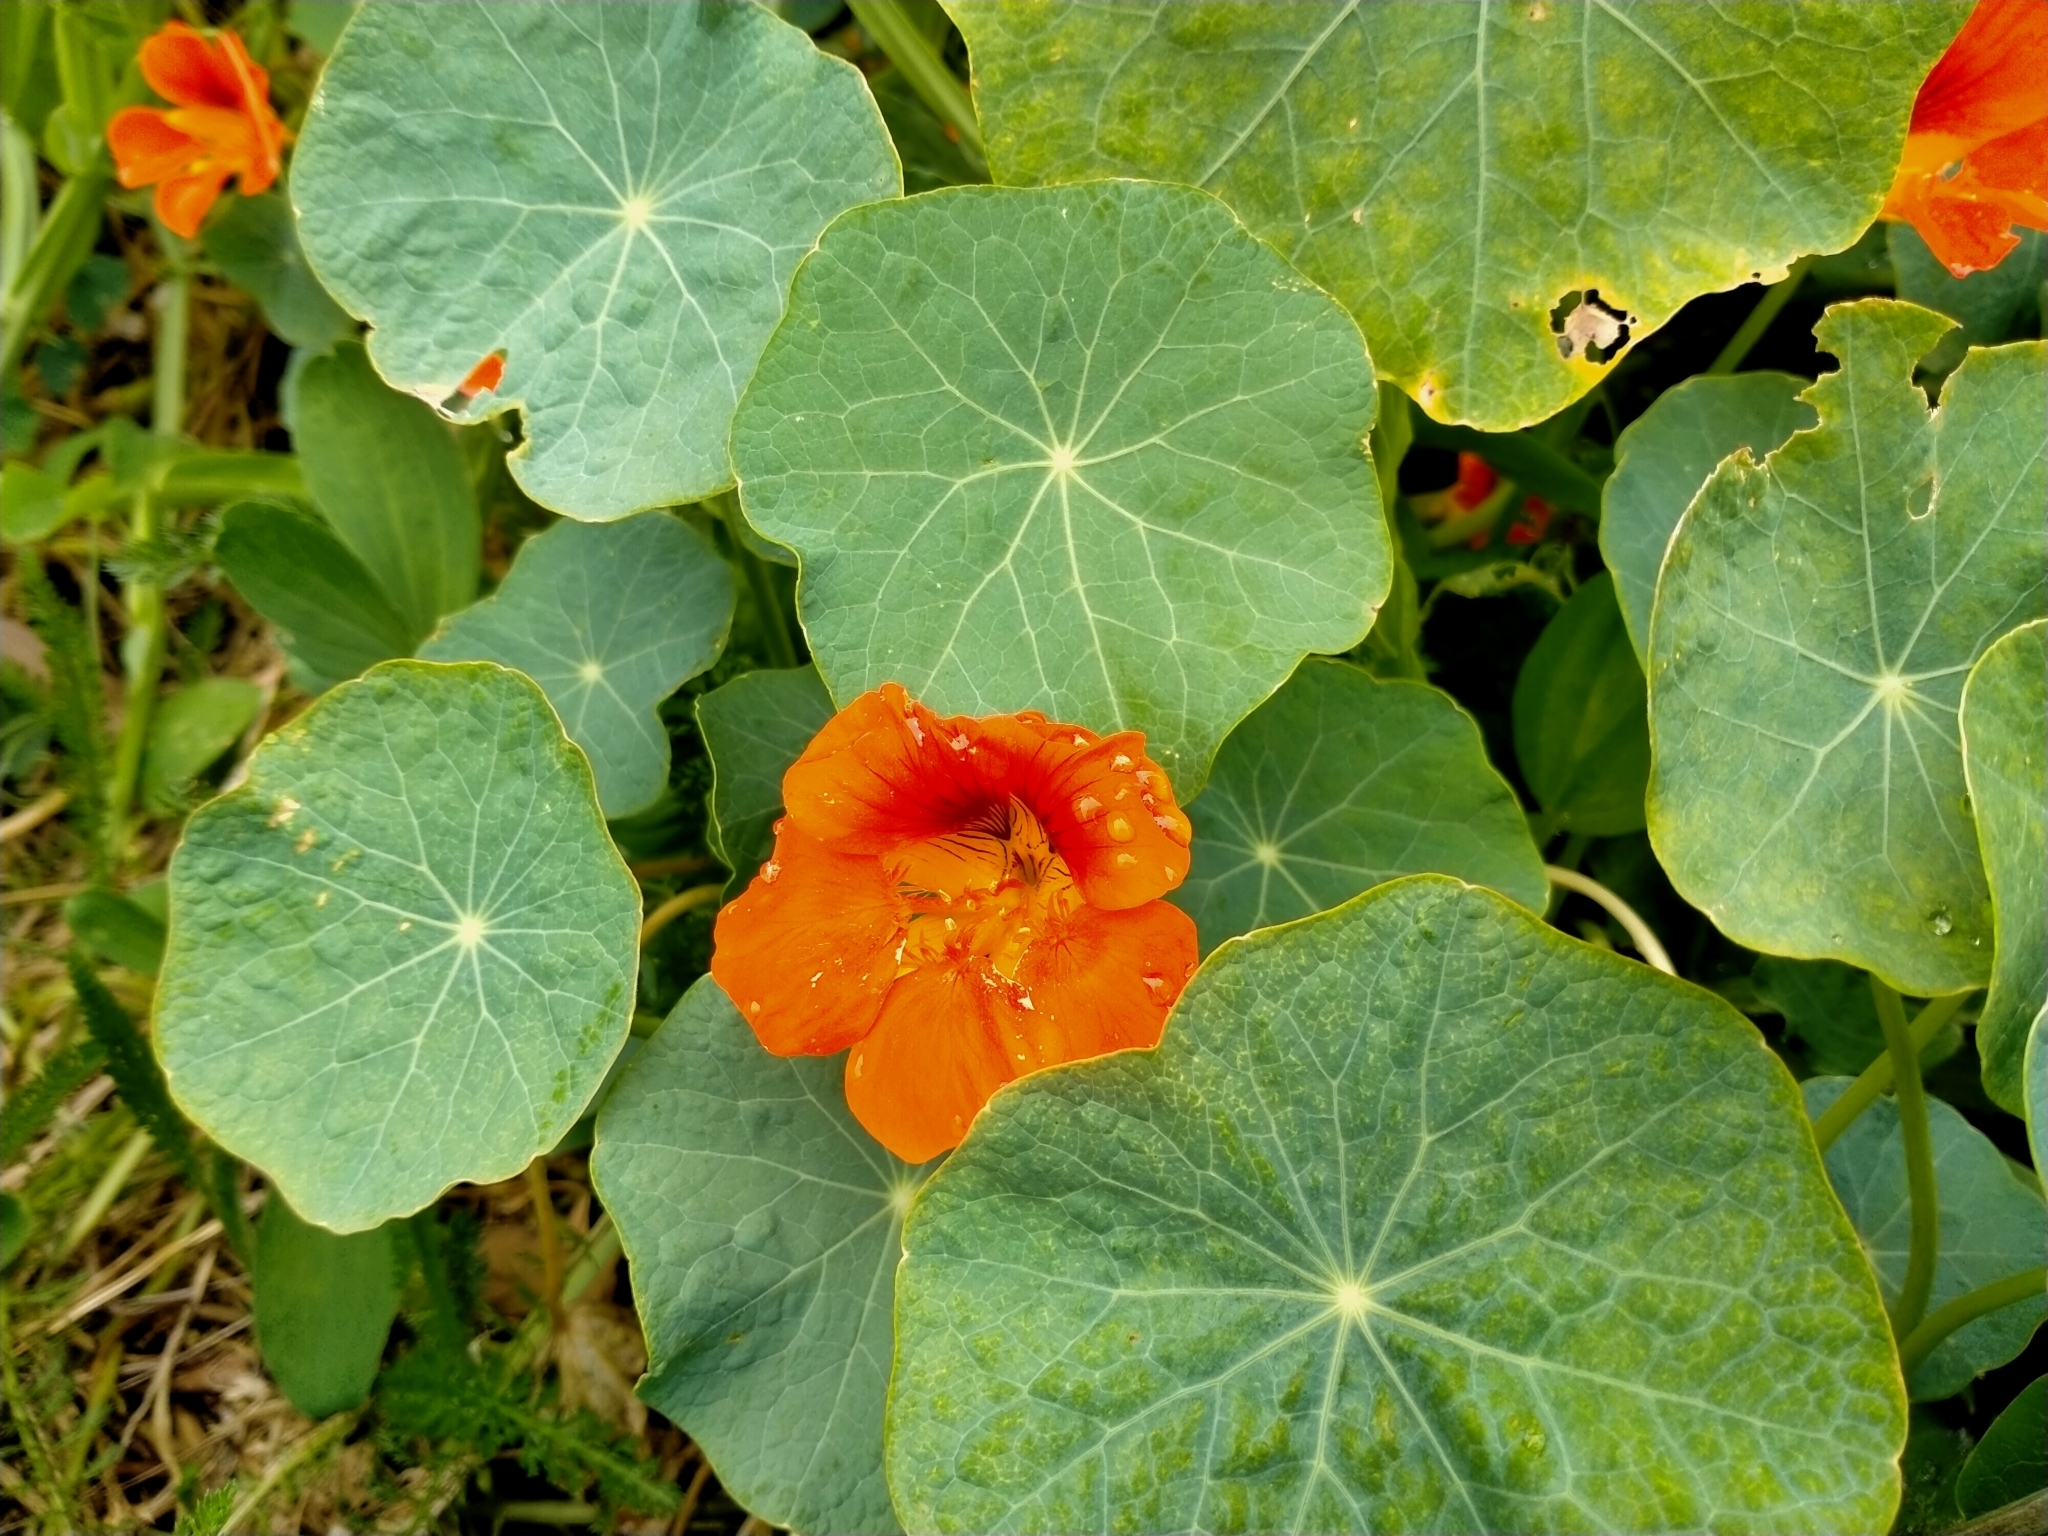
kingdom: Plantae
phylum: Tracheophyta
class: Magnoliopsida
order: Brassicales
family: Tropaeolaceae
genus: Tropaeolum
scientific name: Tropaeolum majus
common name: Nasturtium
